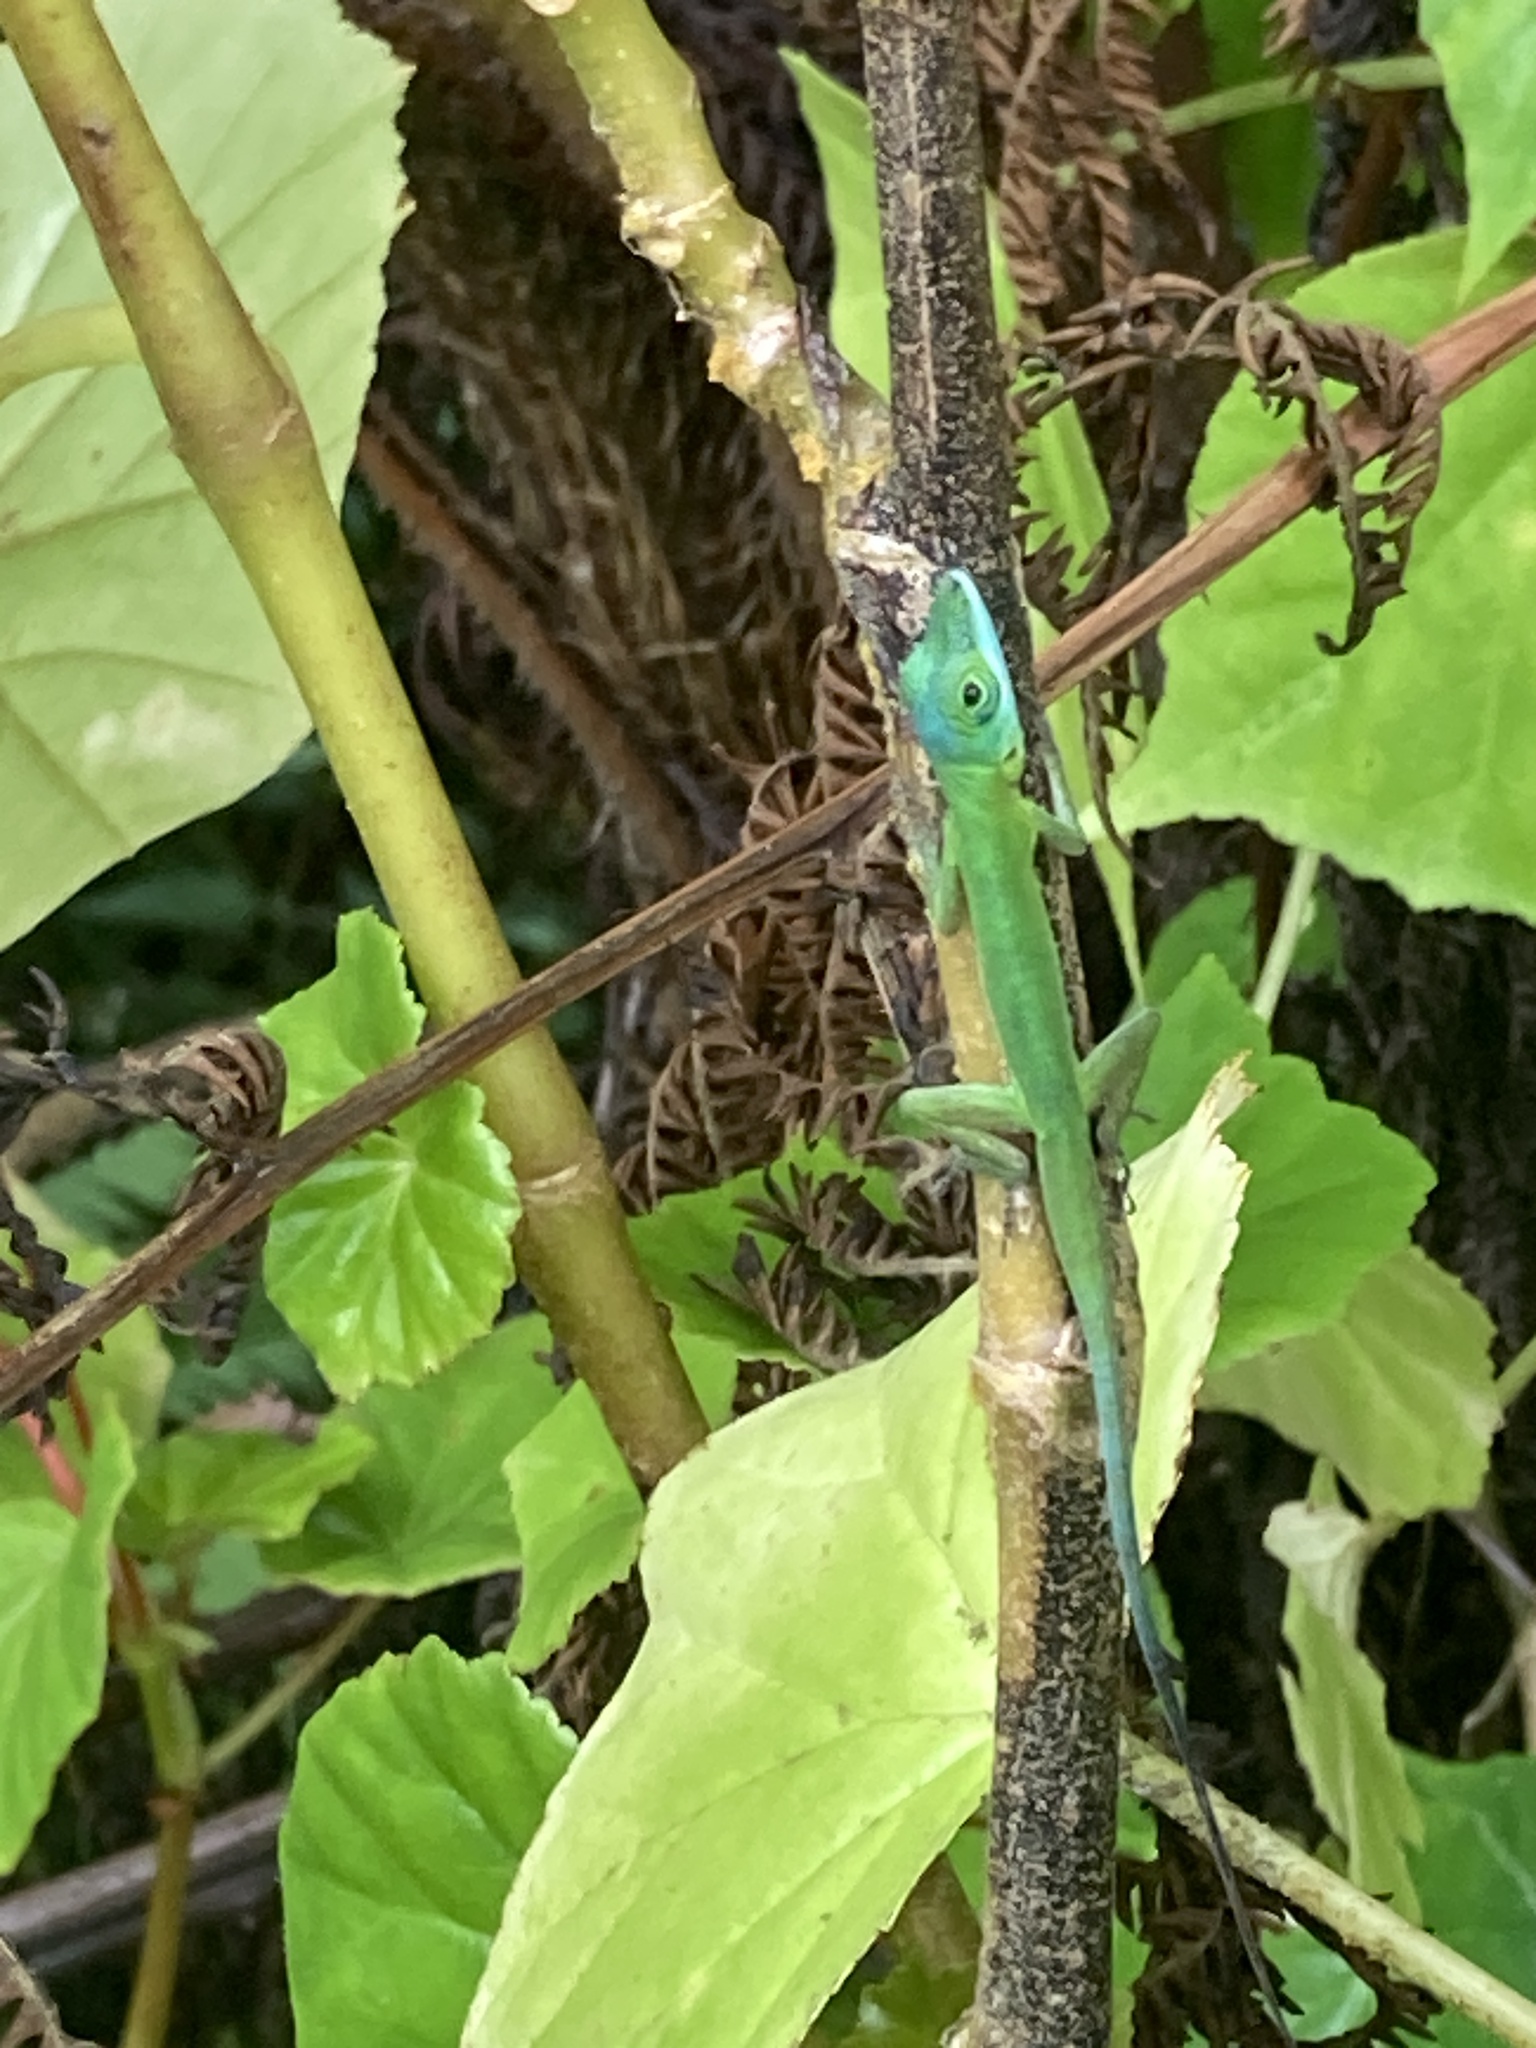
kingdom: Animalia
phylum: Chordata
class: Squamata
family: Dactyloidae
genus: Anolis
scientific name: Anolis trinitatis
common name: Saint vincent's bush anole
